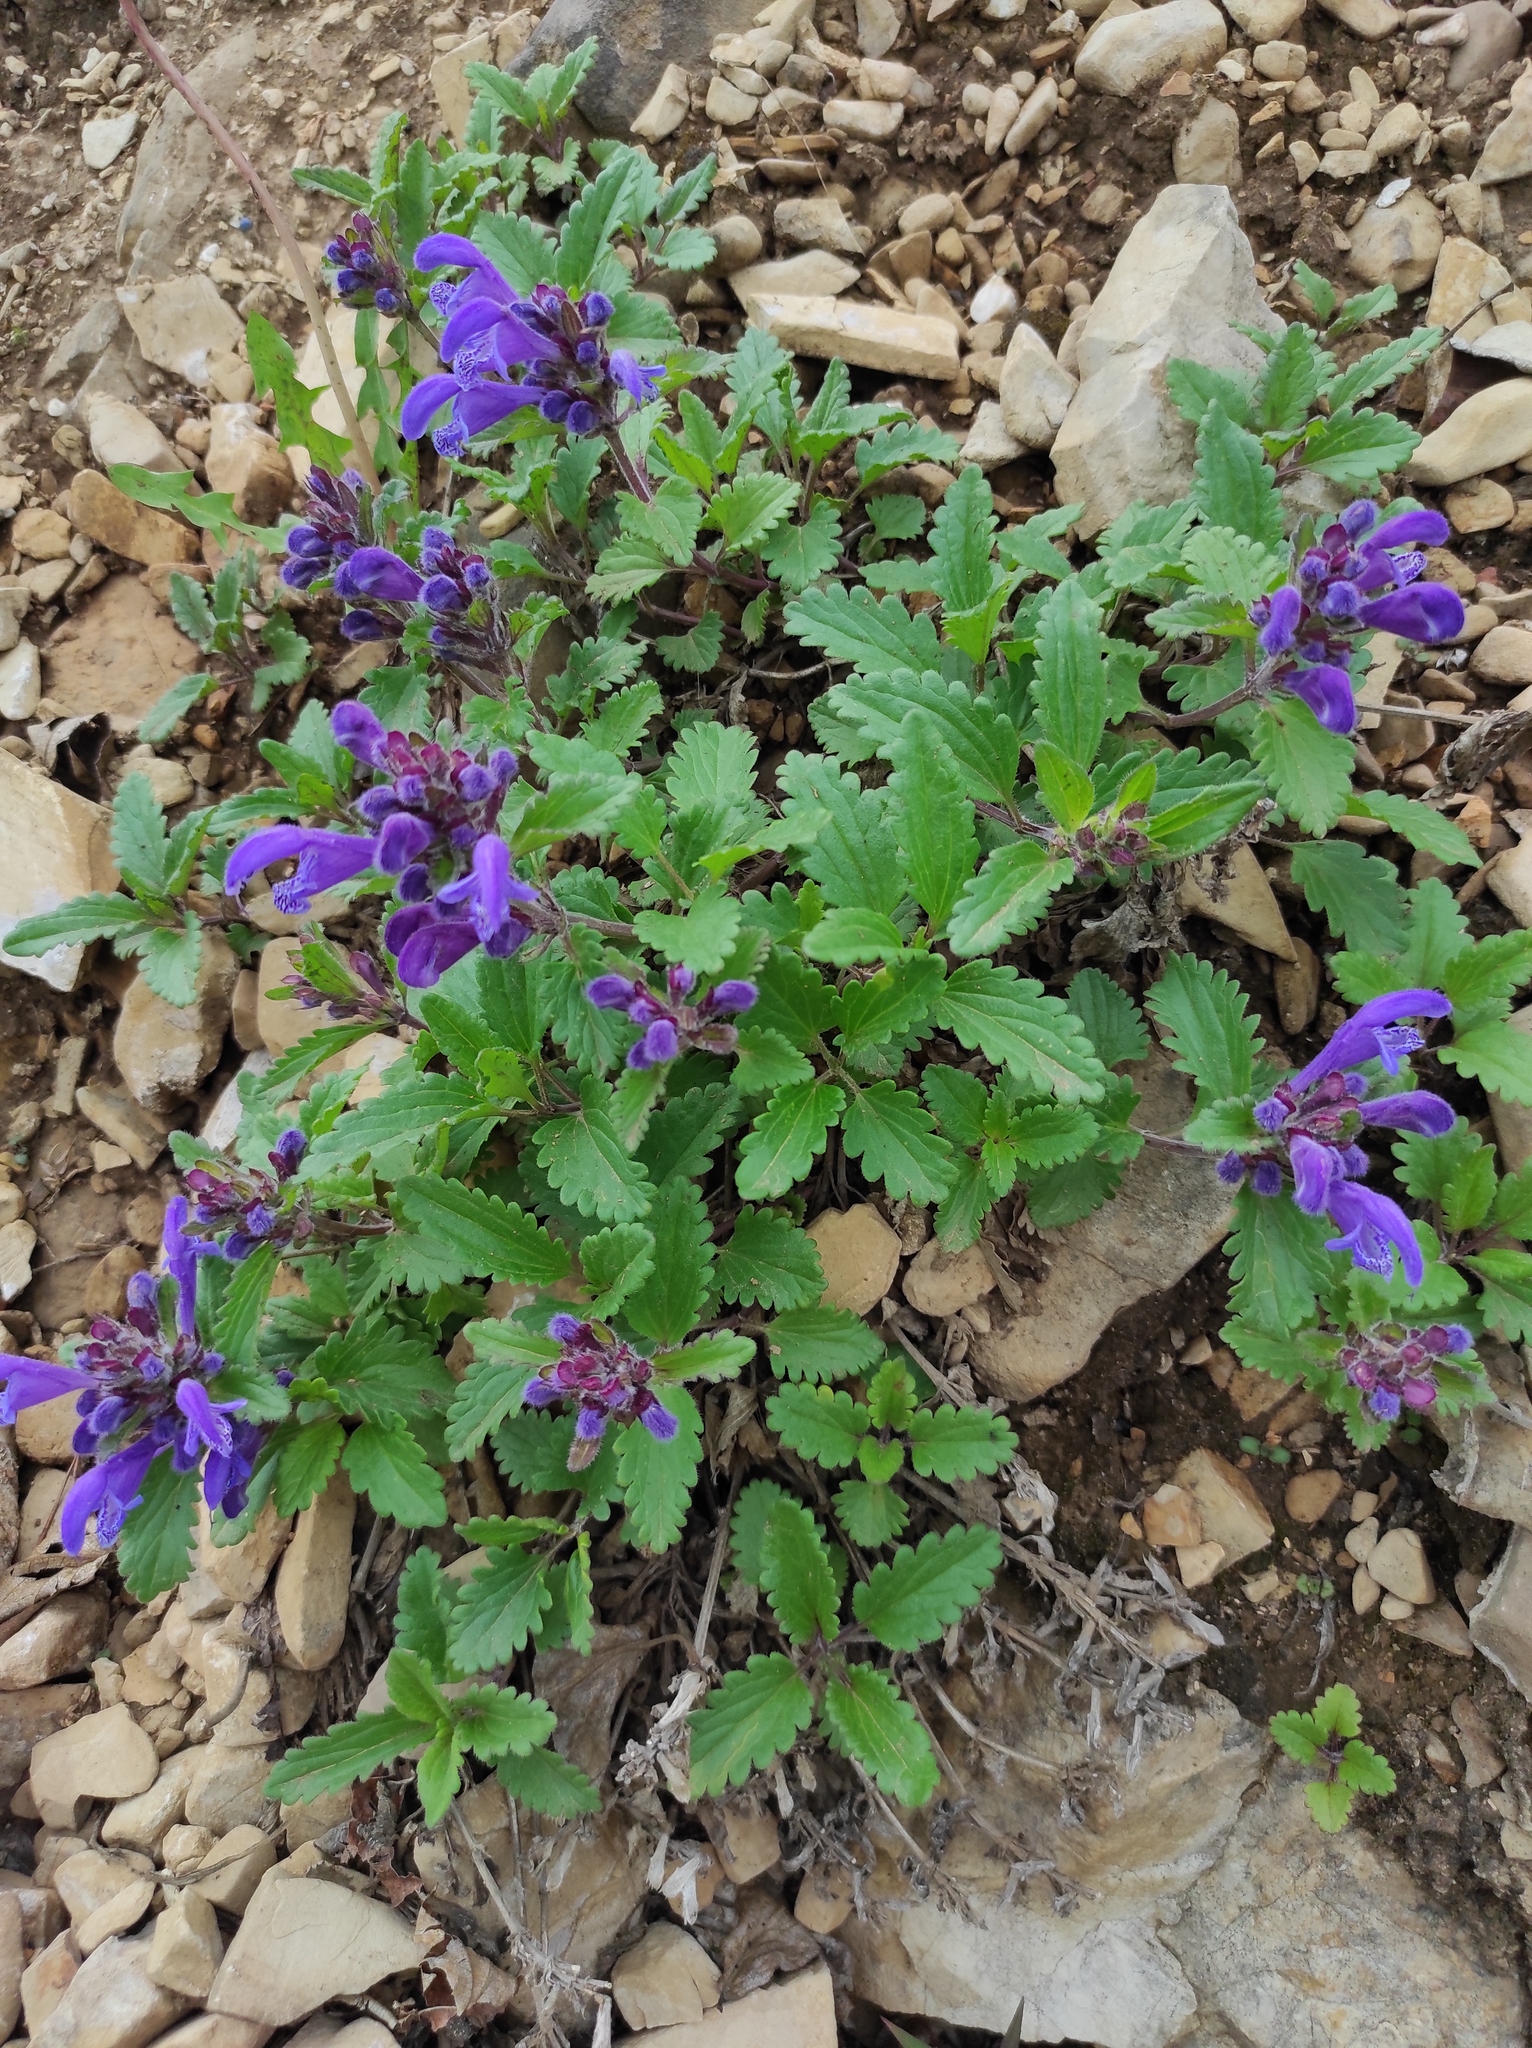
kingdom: Plantae
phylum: Tracheophyta
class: Magnoliopsida
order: Lamiales
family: Lamiaceae
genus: Dracocephalum
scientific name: Dracocephalum stellerianum
